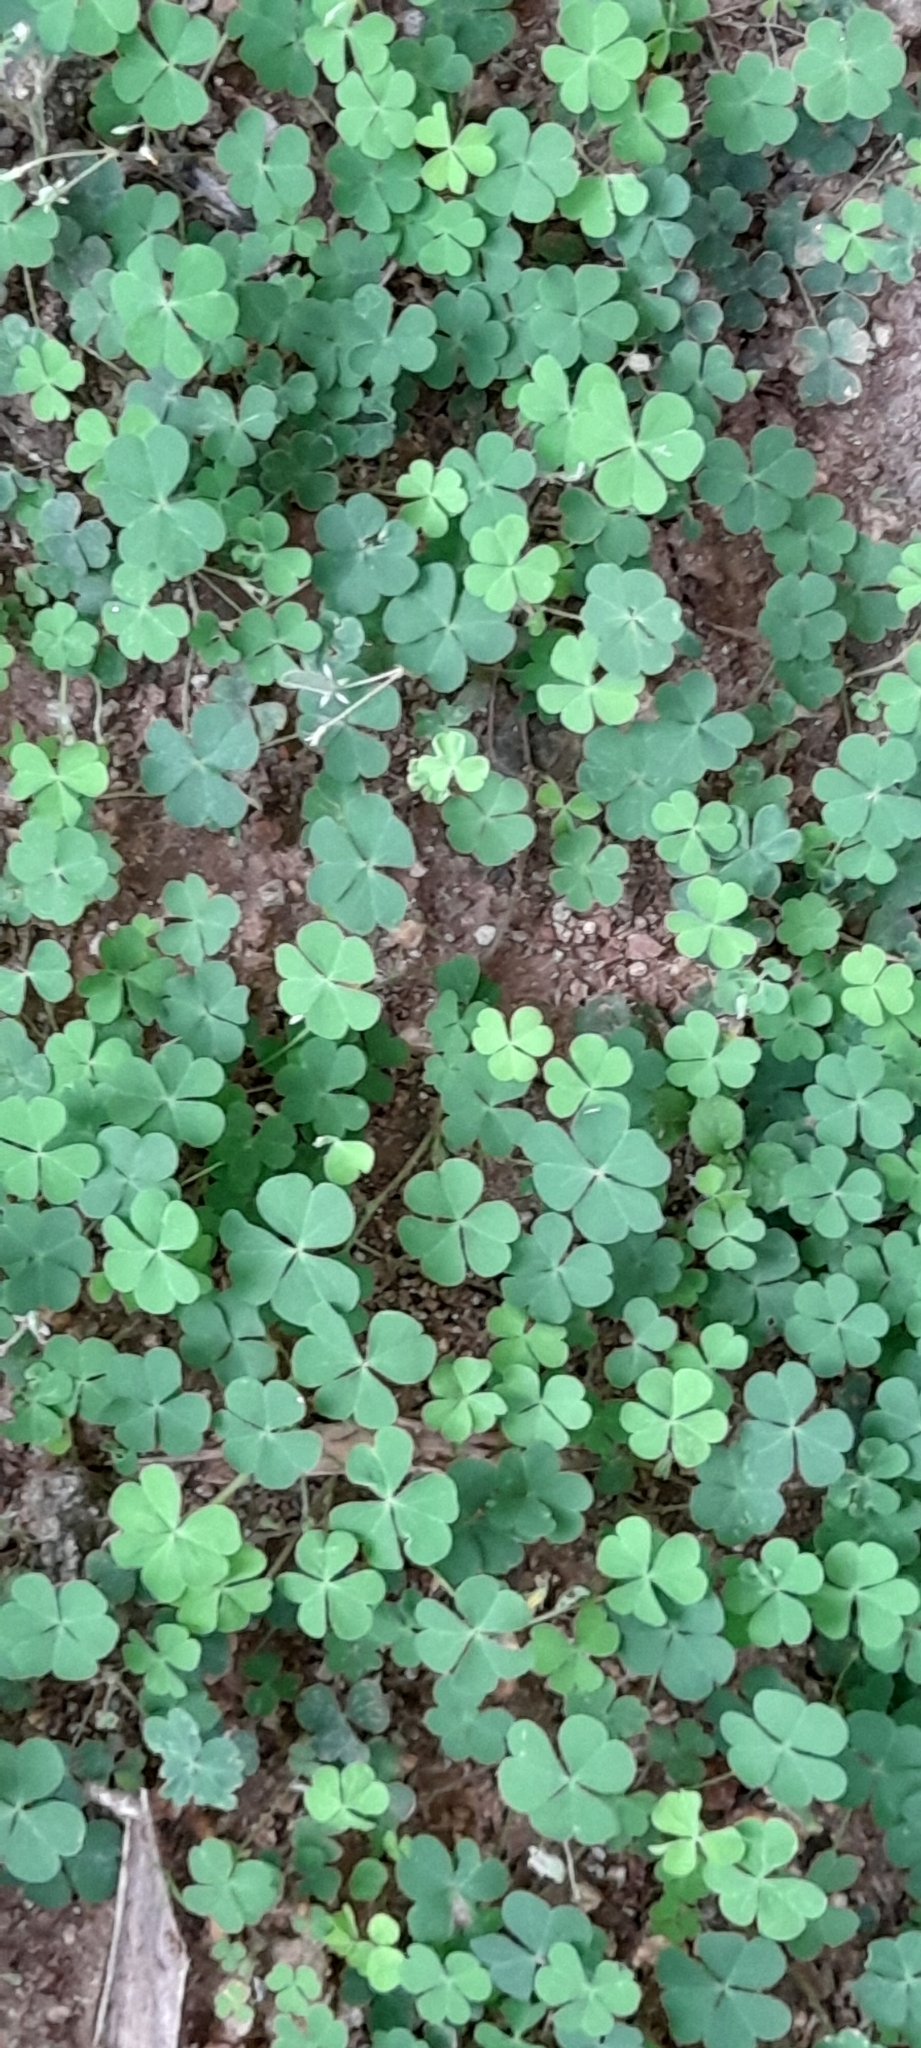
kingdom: Plantae
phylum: Tracheophyta
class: Magnoliopsida
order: Oxalidales
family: Oxalidaceae
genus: Oxalis
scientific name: Oxalis corniculata
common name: Procumbent yellow-sorrel
